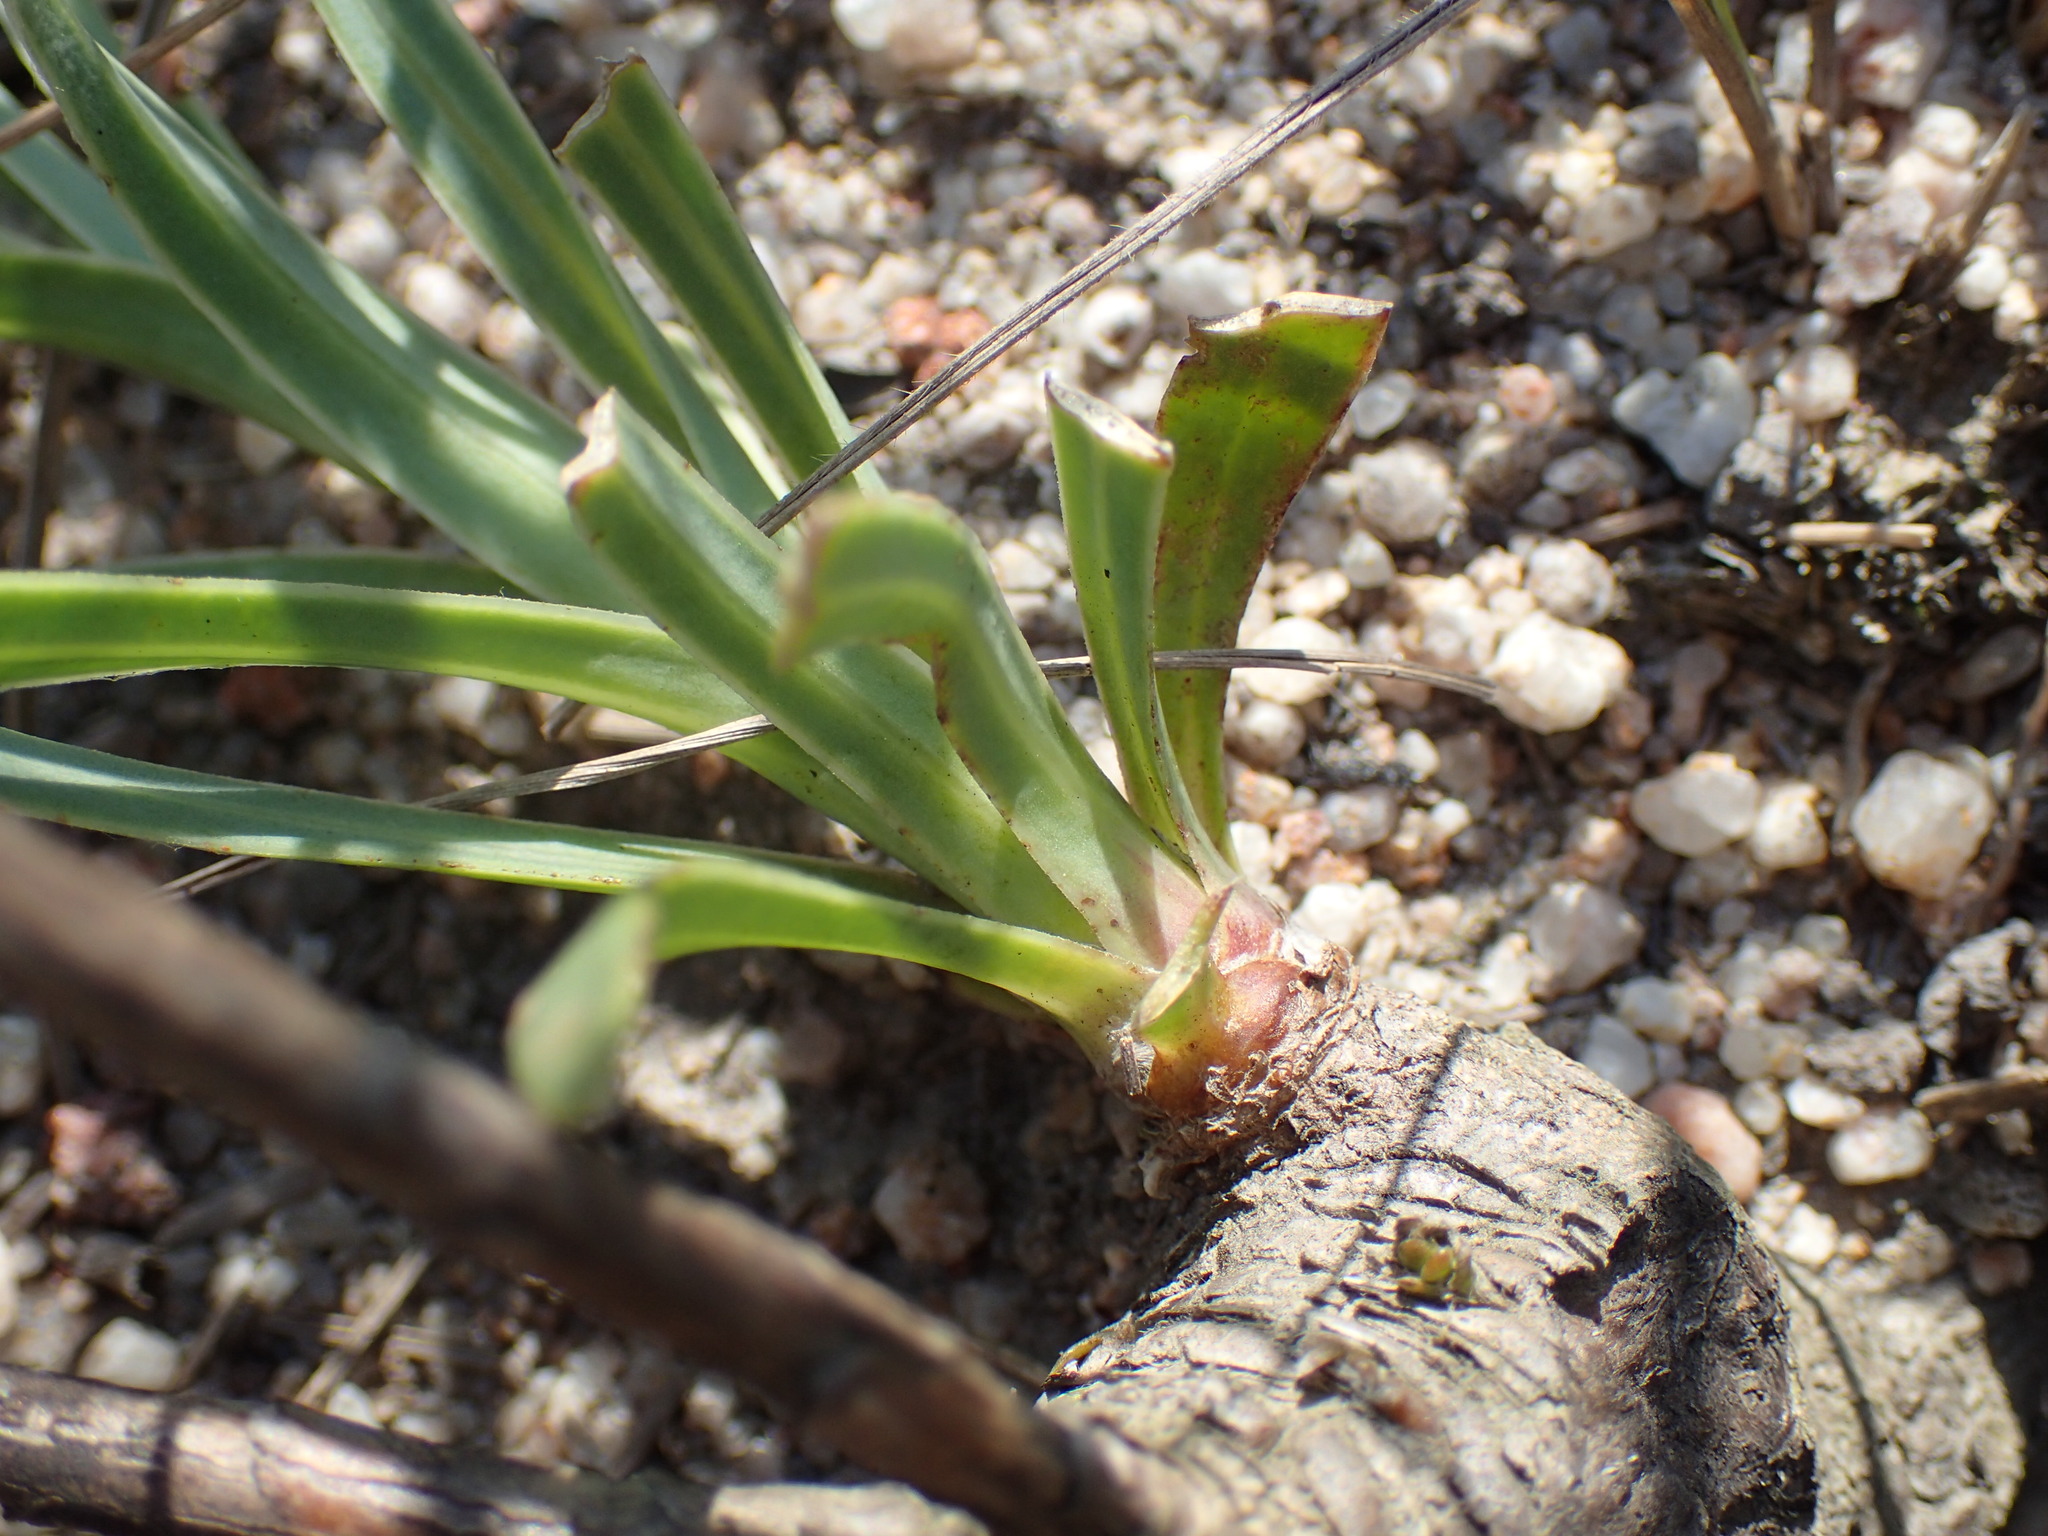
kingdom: Plantae
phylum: Tracheophyta
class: Magnoliopsida
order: Asterales
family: Asteraceae
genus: Osteospermum
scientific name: Osteospermum imbricatum
